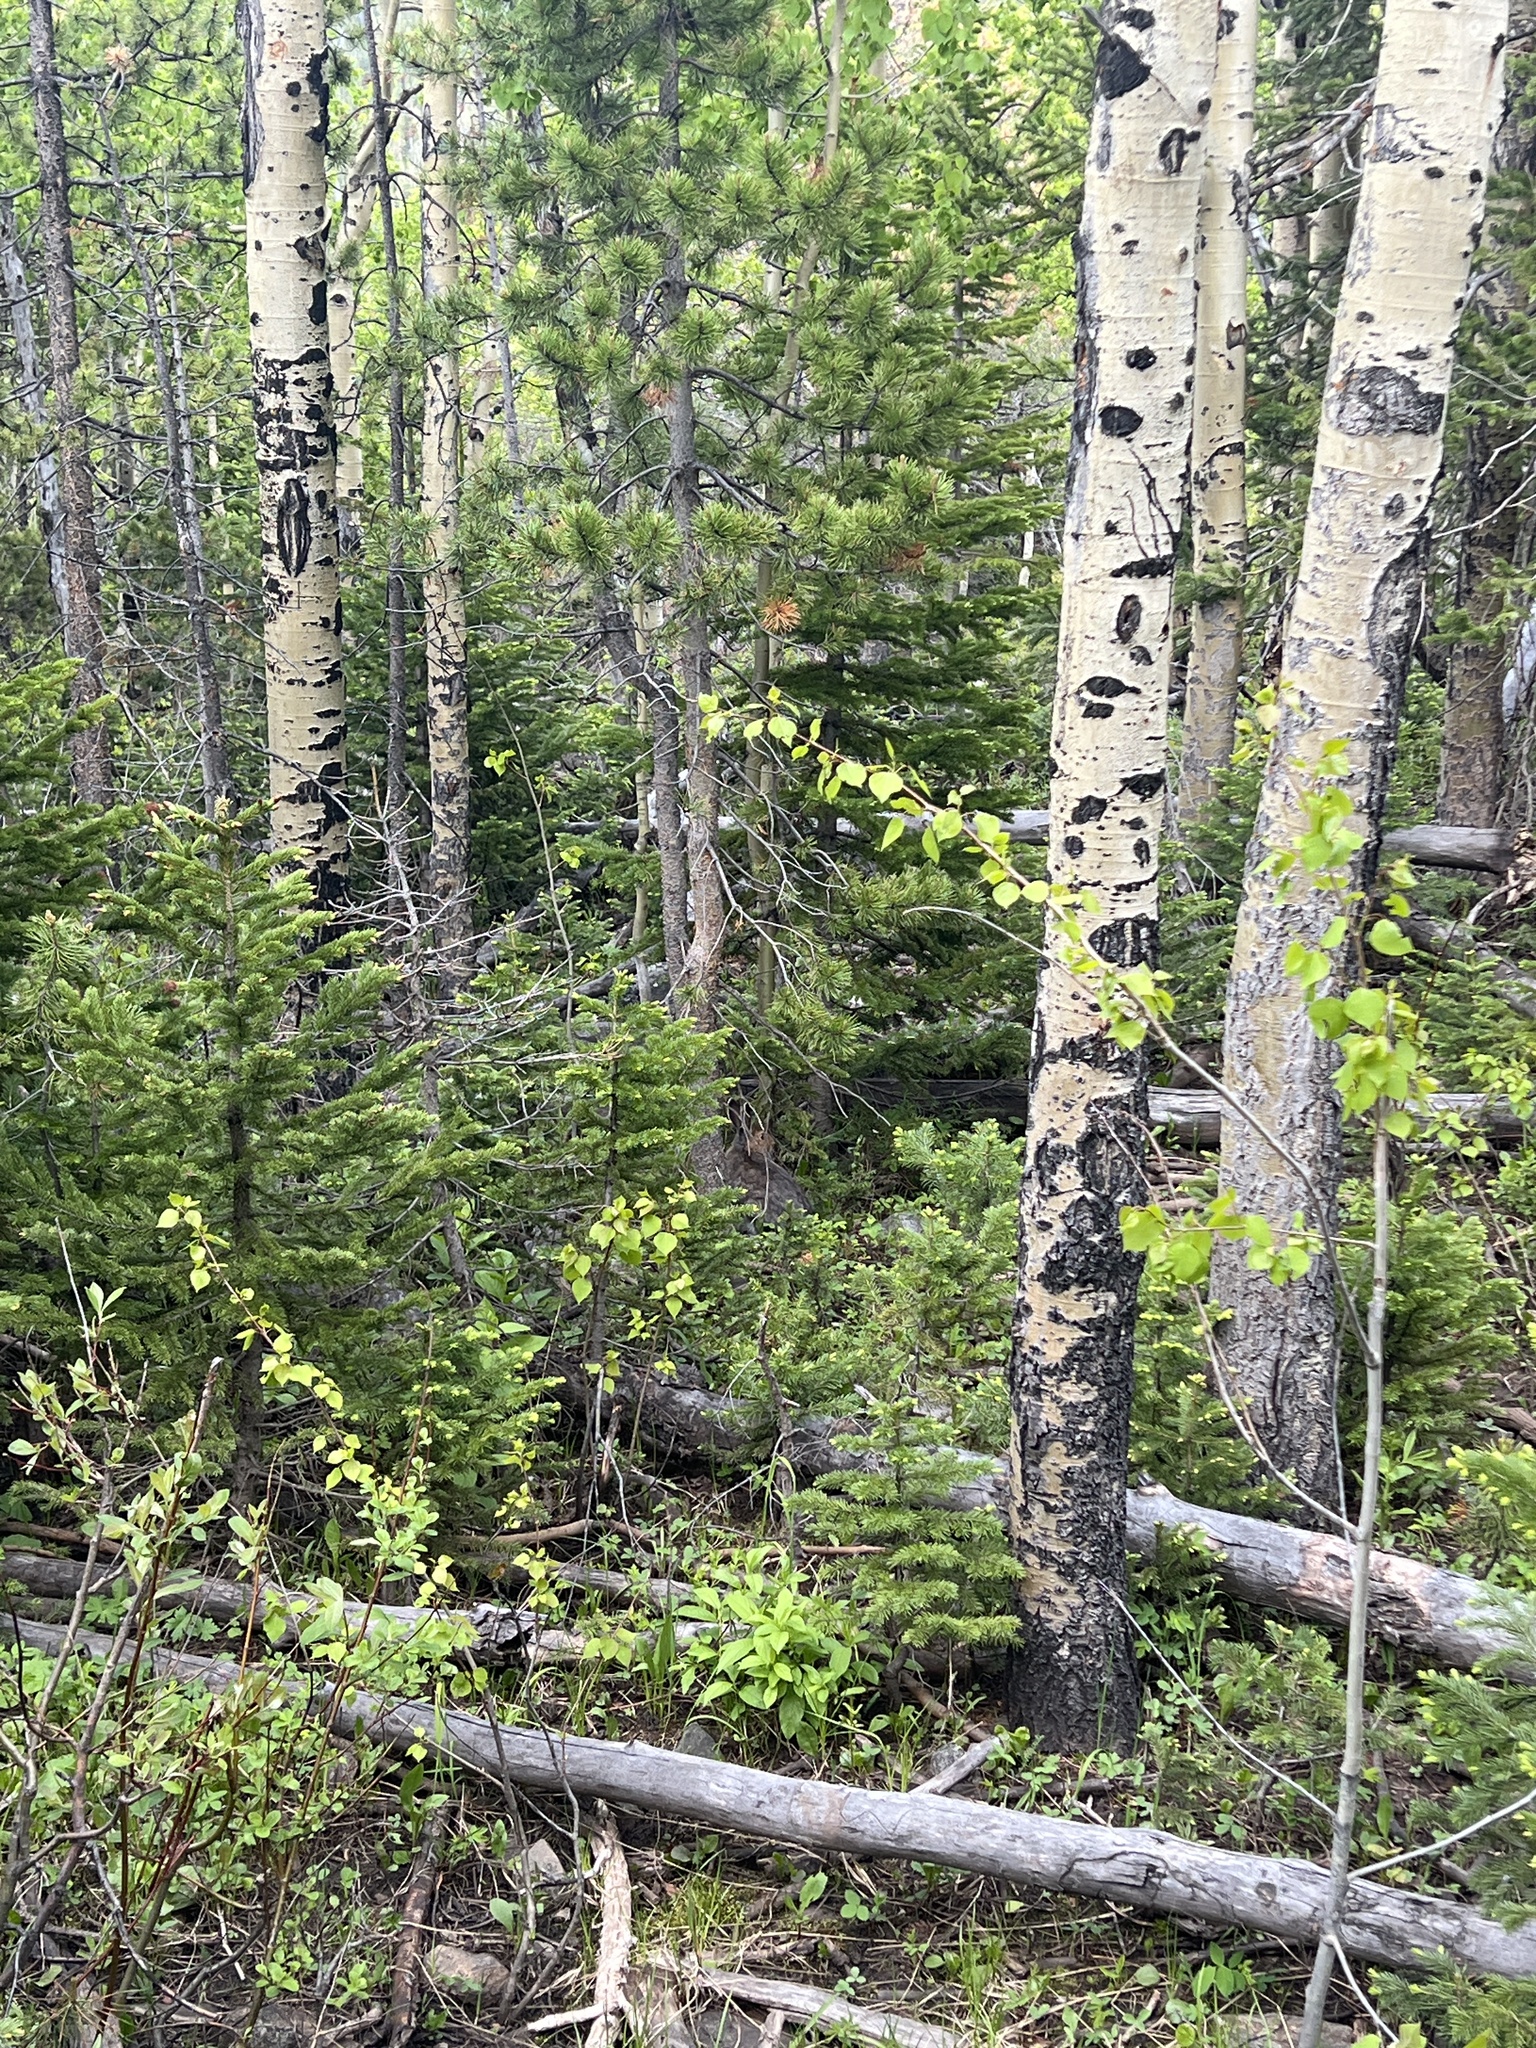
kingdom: Animalia
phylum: Chordata
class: Mammalia
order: Lagomorpha
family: Leporidae
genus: Sylvilagus
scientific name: Sylvilagus nuttallii
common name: Mountain cottontail
